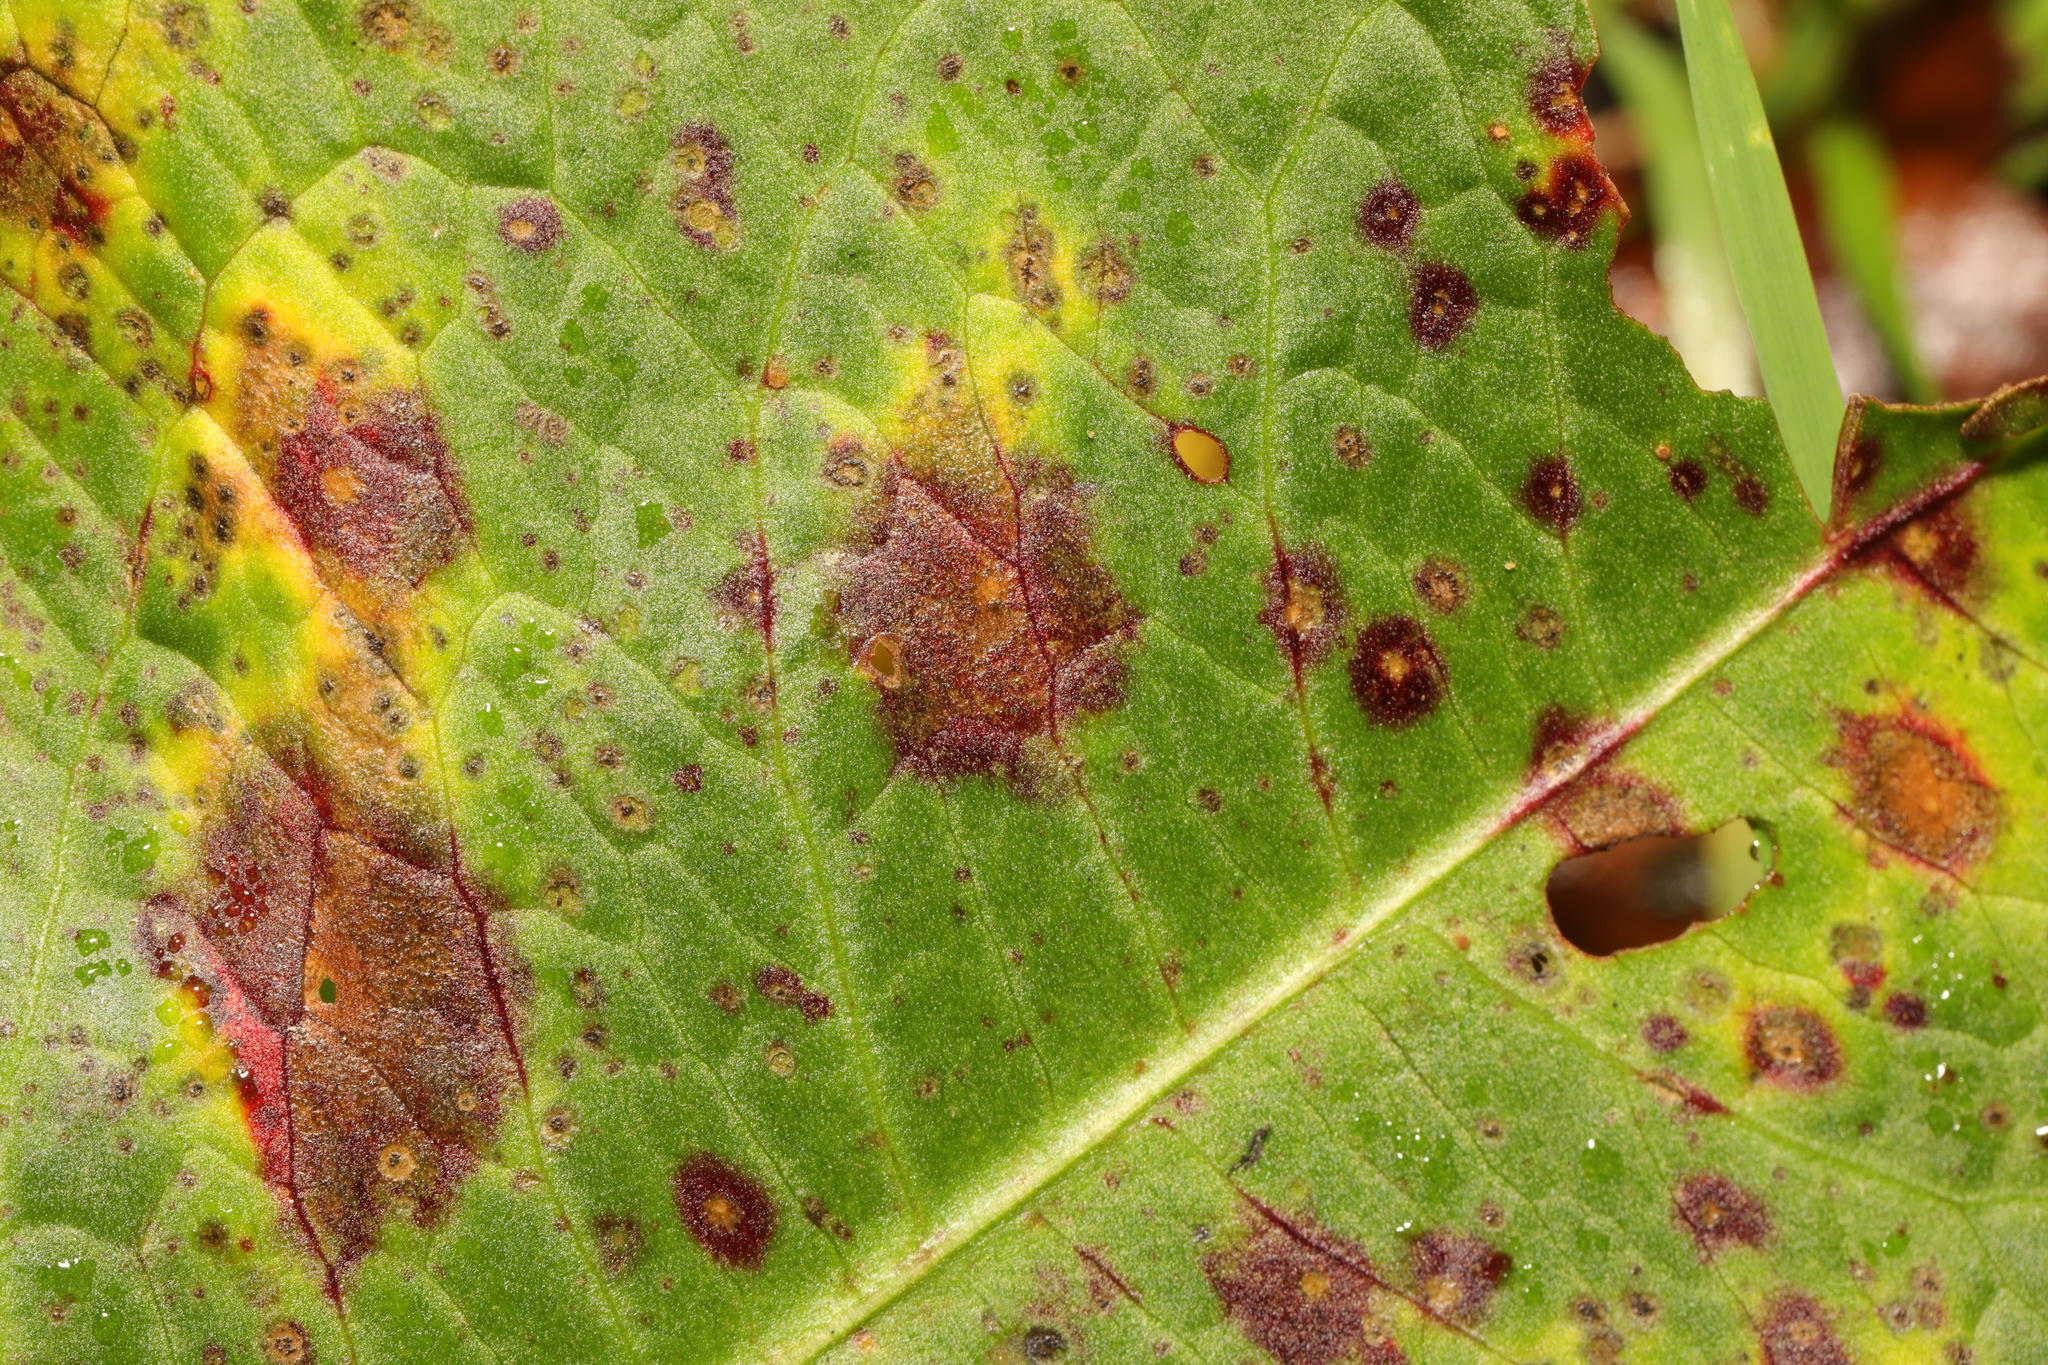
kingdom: Fungi
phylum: Ascomycota
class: Dothideomycetes
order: Mycosphaerellales
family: Mycosphaerellaceae
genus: Ramularia
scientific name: Ramularia rubella
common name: Red dock spot
